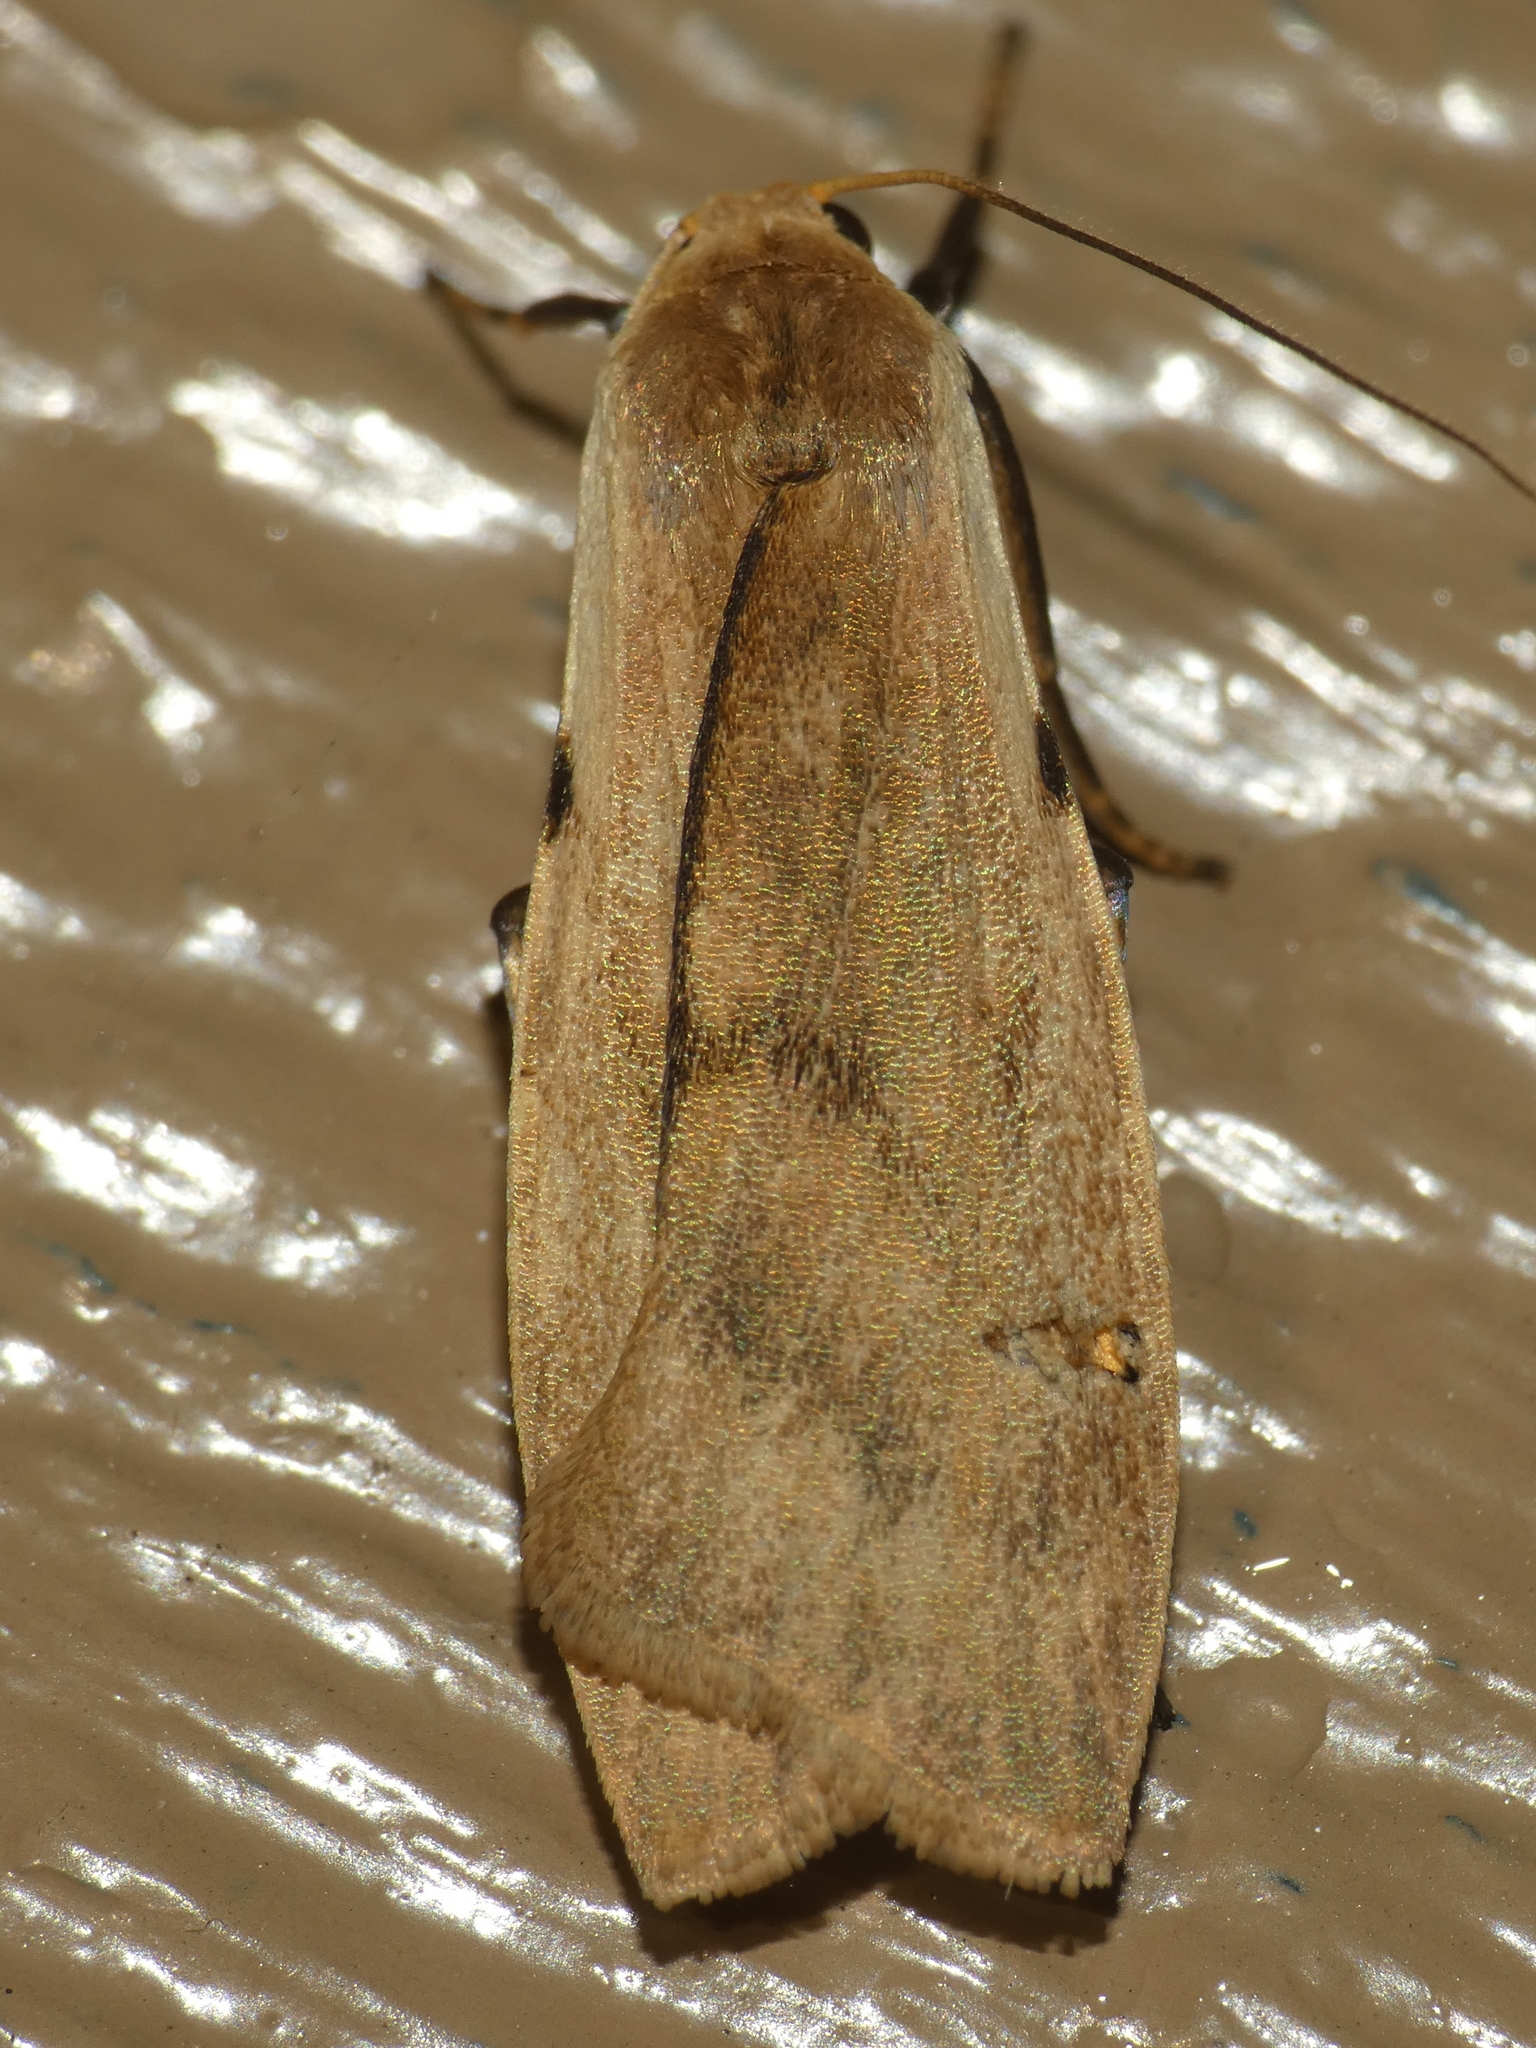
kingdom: Animalia
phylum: Arthropoda
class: Insecta
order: Lepidoptera
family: Erebidae
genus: Teulisna
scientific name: Teulisna bipunctata
